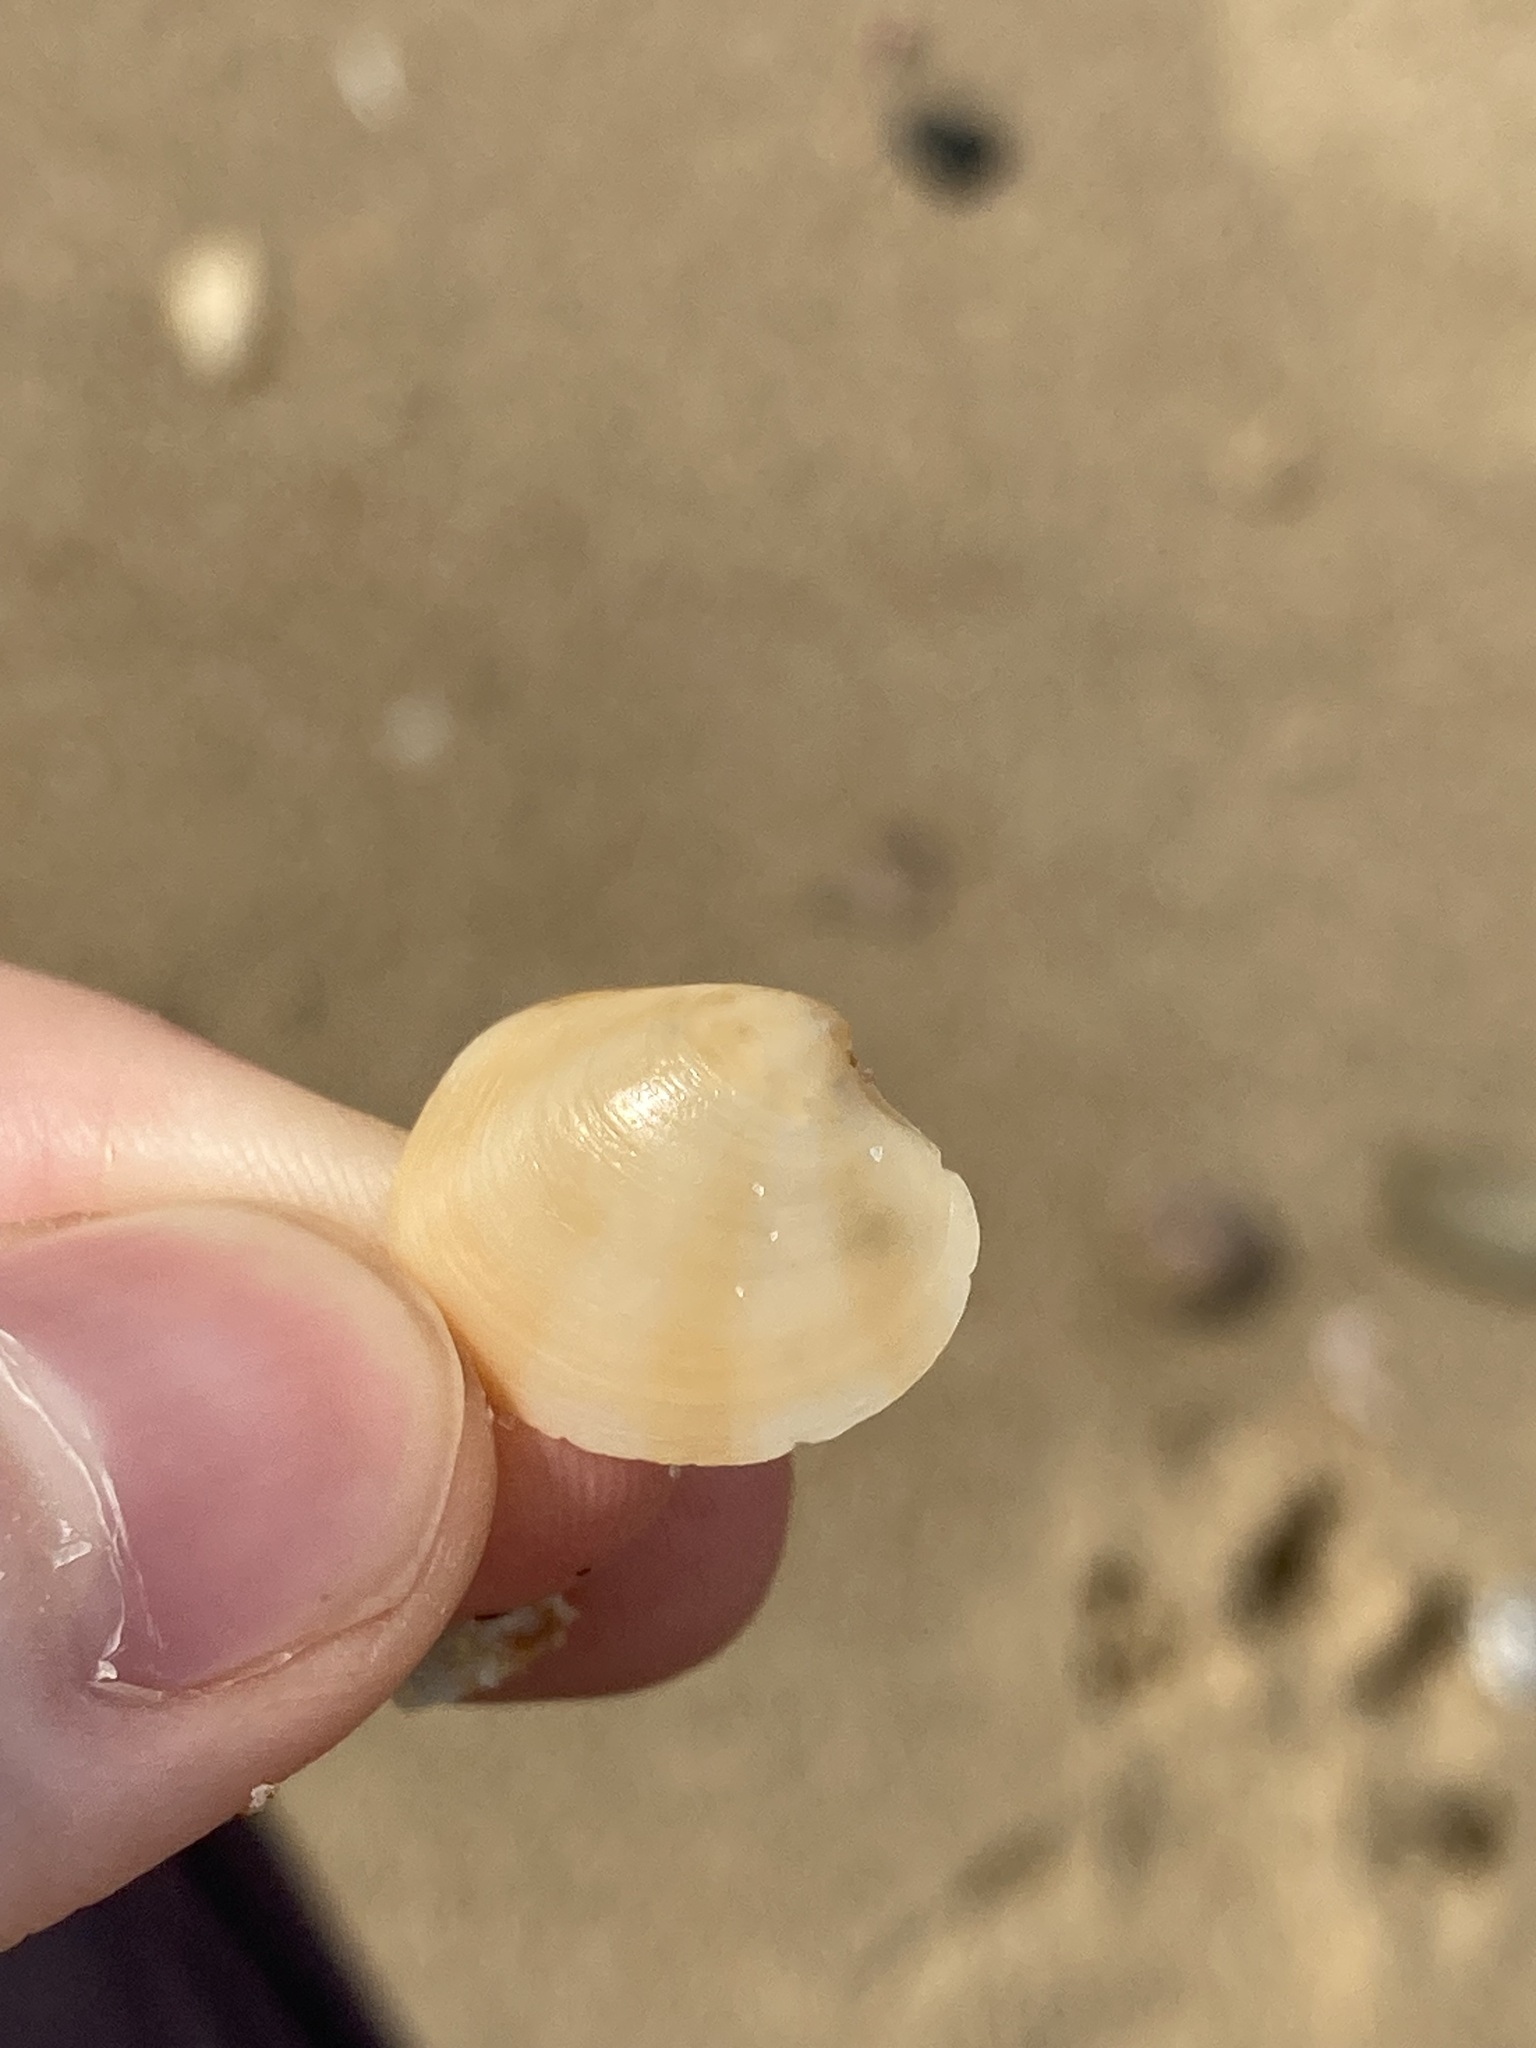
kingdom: Animalia
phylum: Mollusca
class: Bivalvia
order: Venerida
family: Veneridae
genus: Bassina
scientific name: Bassina pachyphylla
